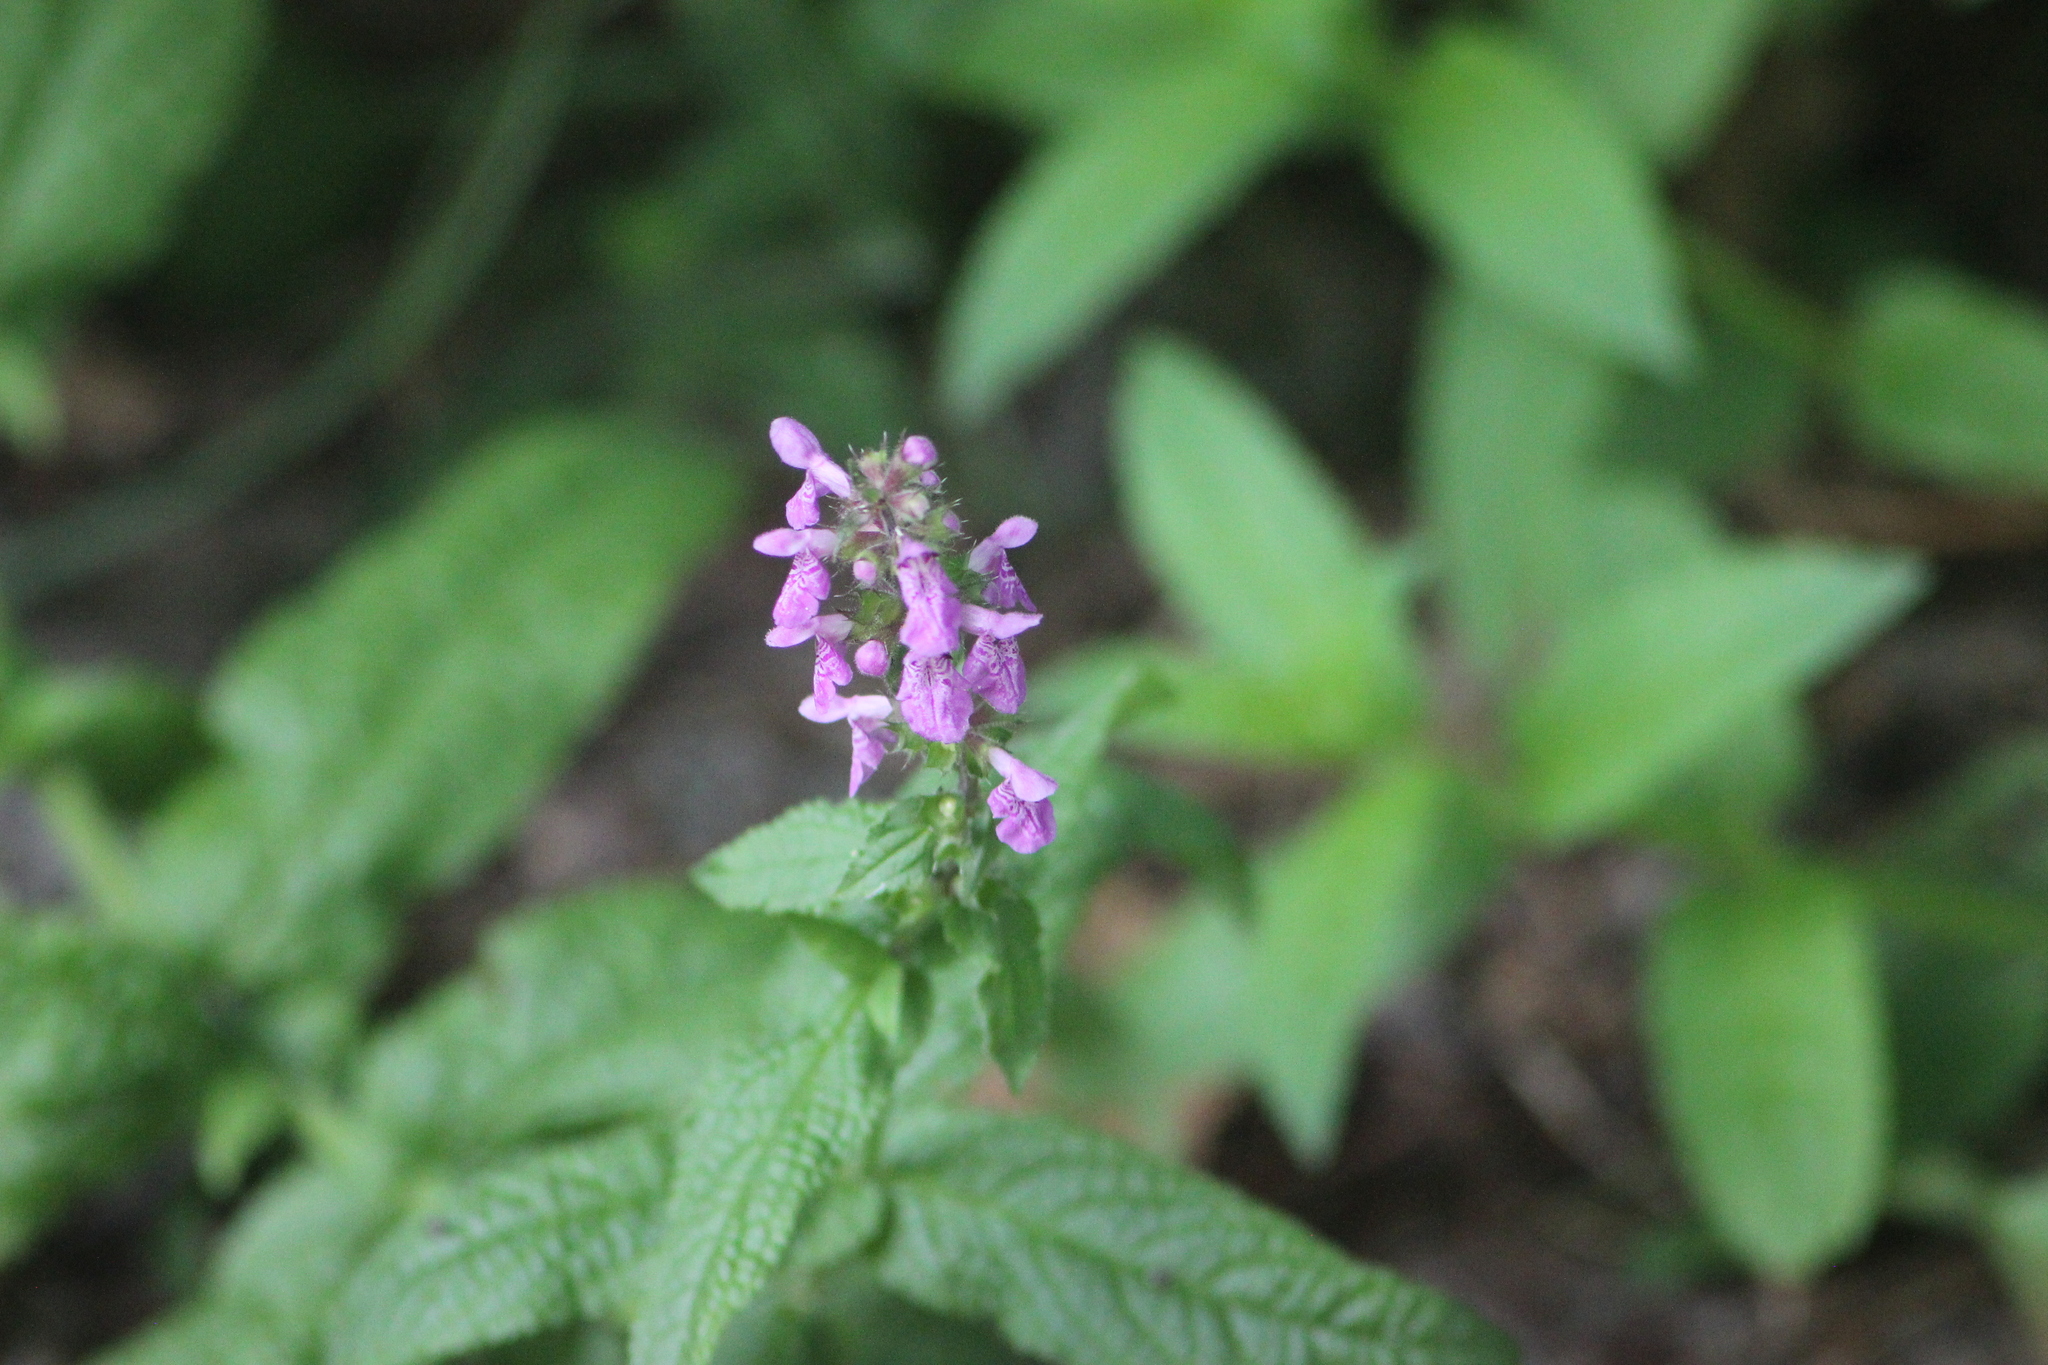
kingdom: Plantae
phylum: Tracheophyta
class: Magnoliopsida
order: Lamiales
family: Lamiaceae
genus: Stachys
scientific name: Stachys palustris
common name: Marsh woundwort
